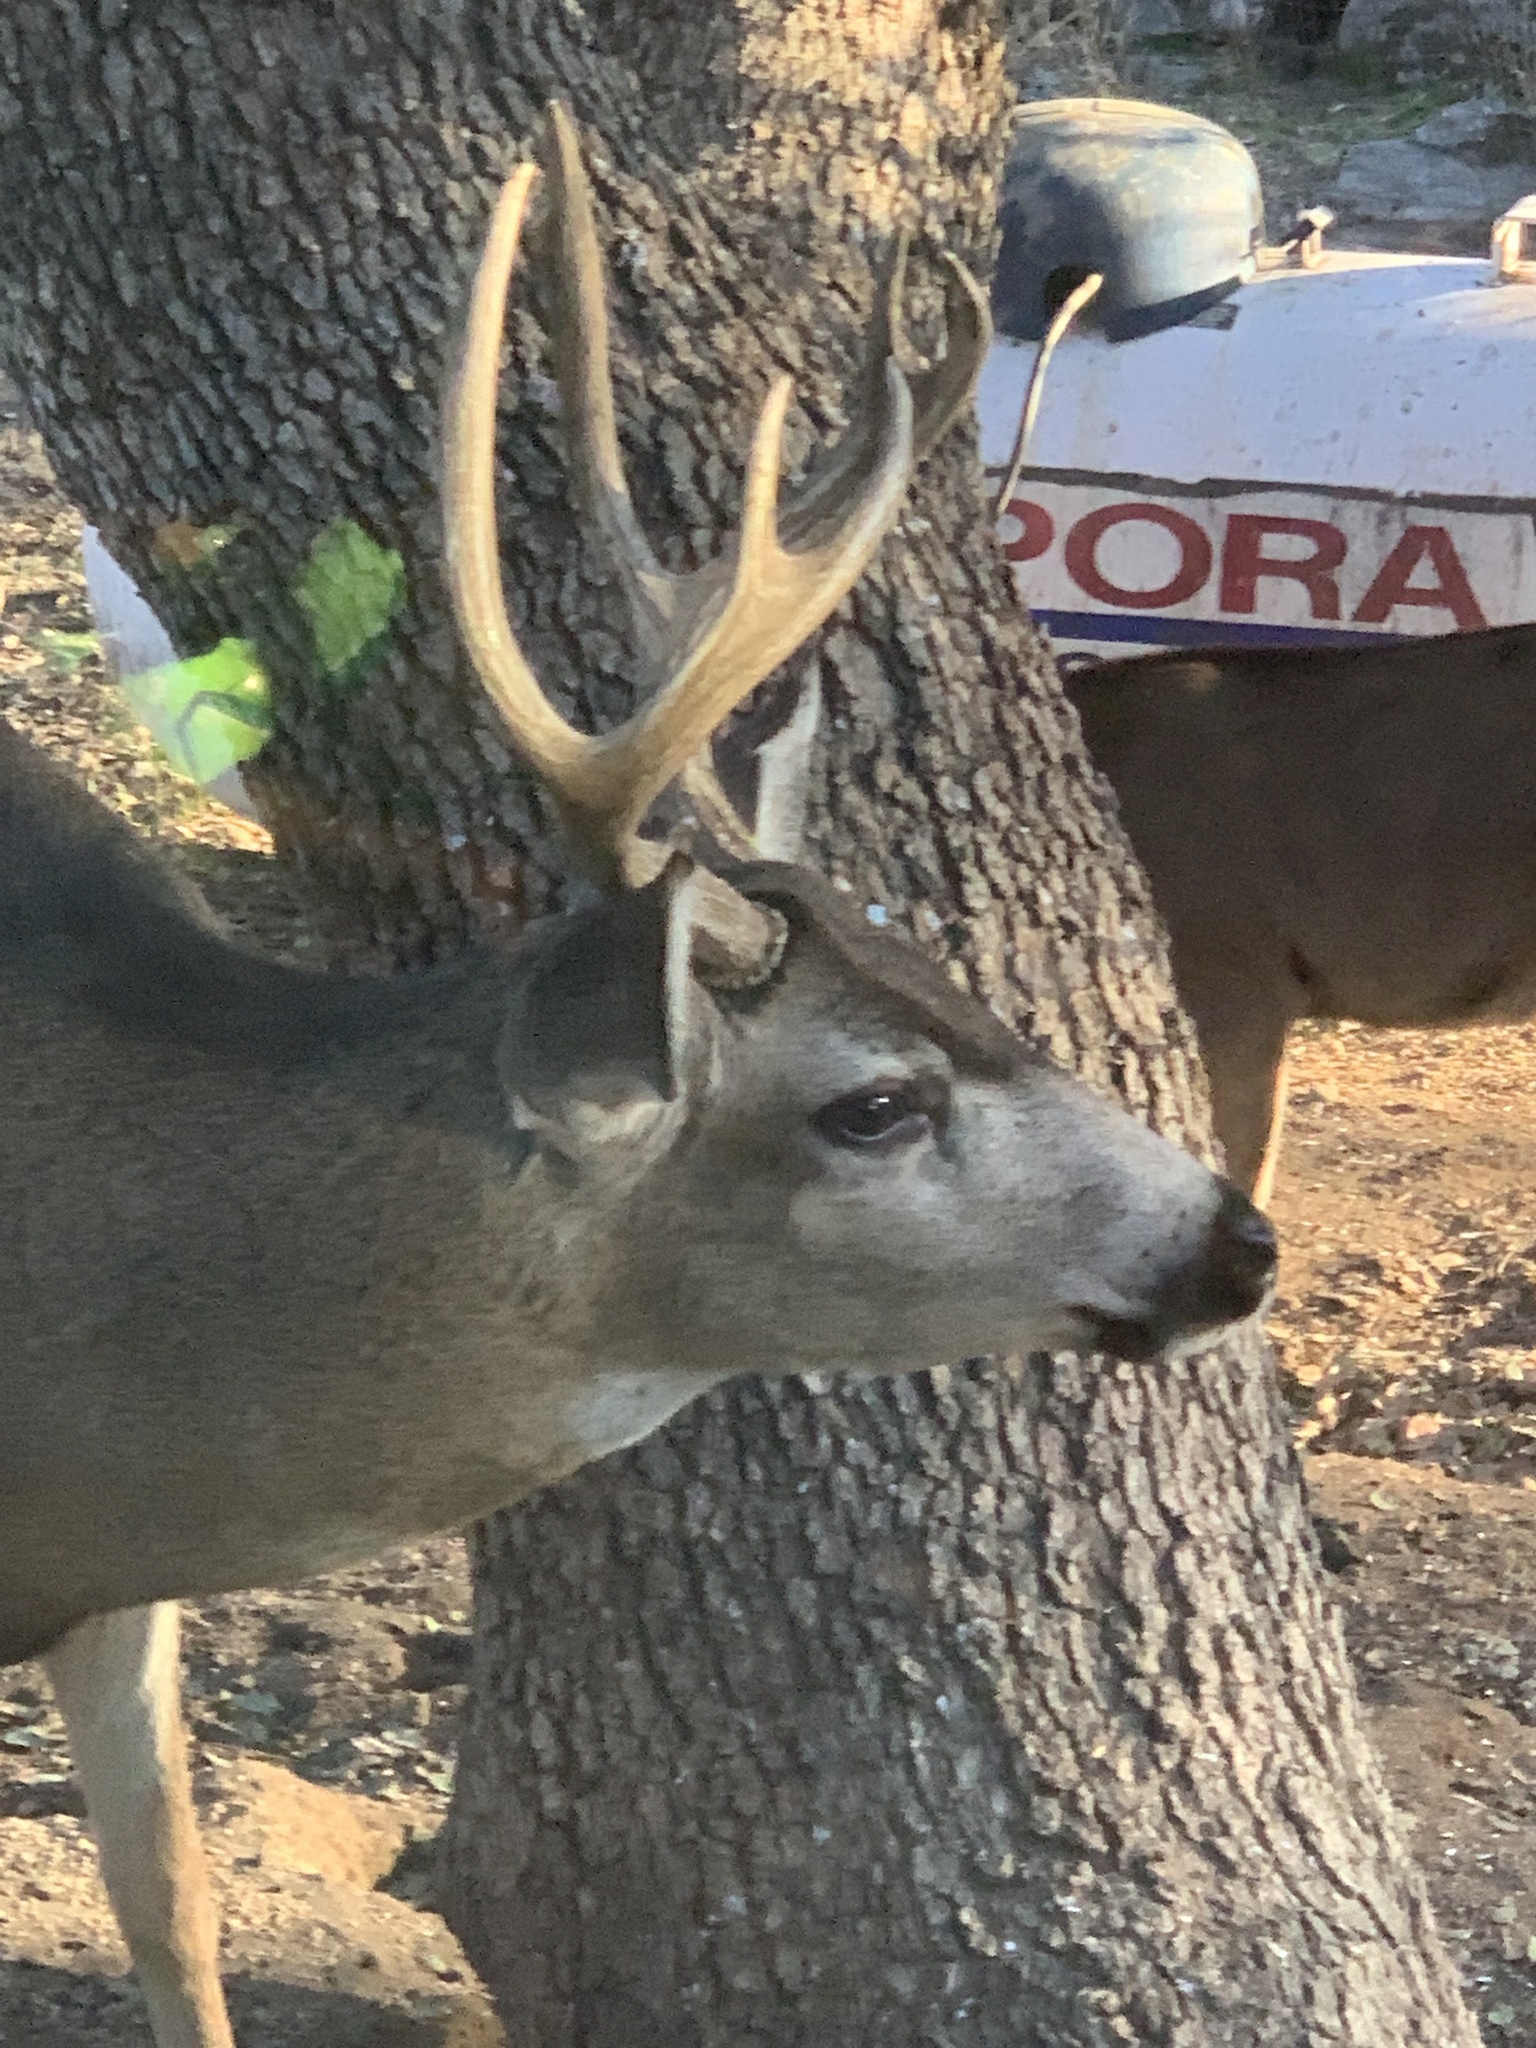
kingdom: Animalia
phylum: Chordata
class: Mammalia
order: Artiodactyla
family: Cervidae
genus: Odocoileus
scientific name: Odocoileus hemionus
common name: Mule deer
